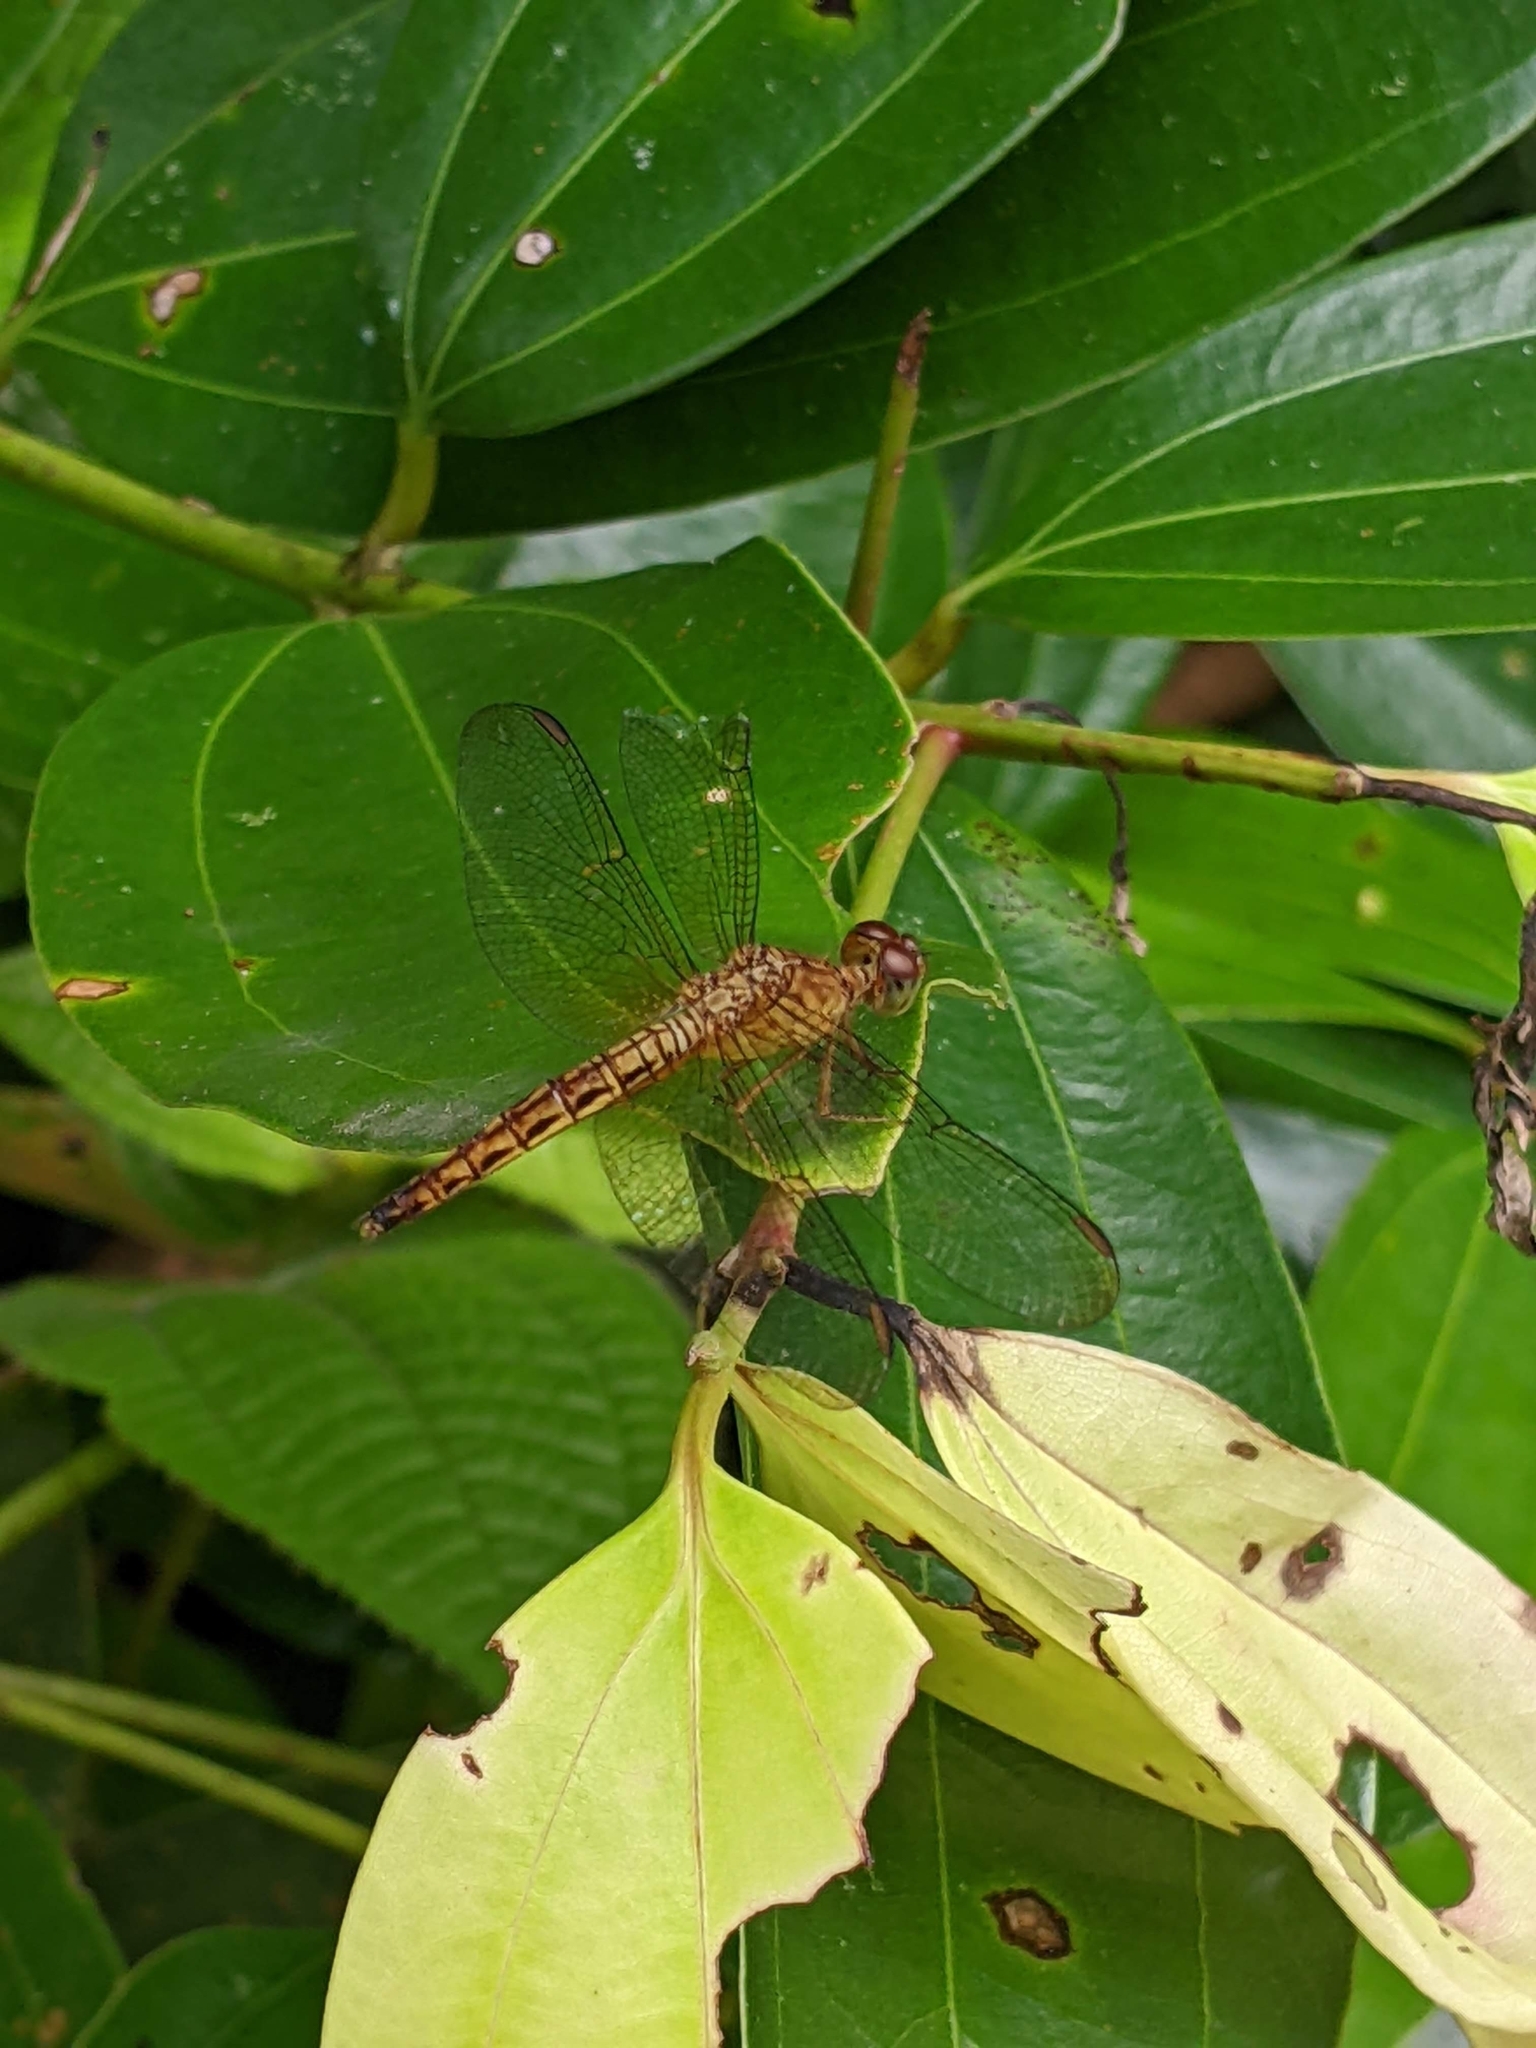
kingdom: Animalia
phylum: Arthropoda
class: Insecta
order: Odonata
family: Libellulidae
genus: Neurothemis
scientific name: Neurothemis fluctuans
